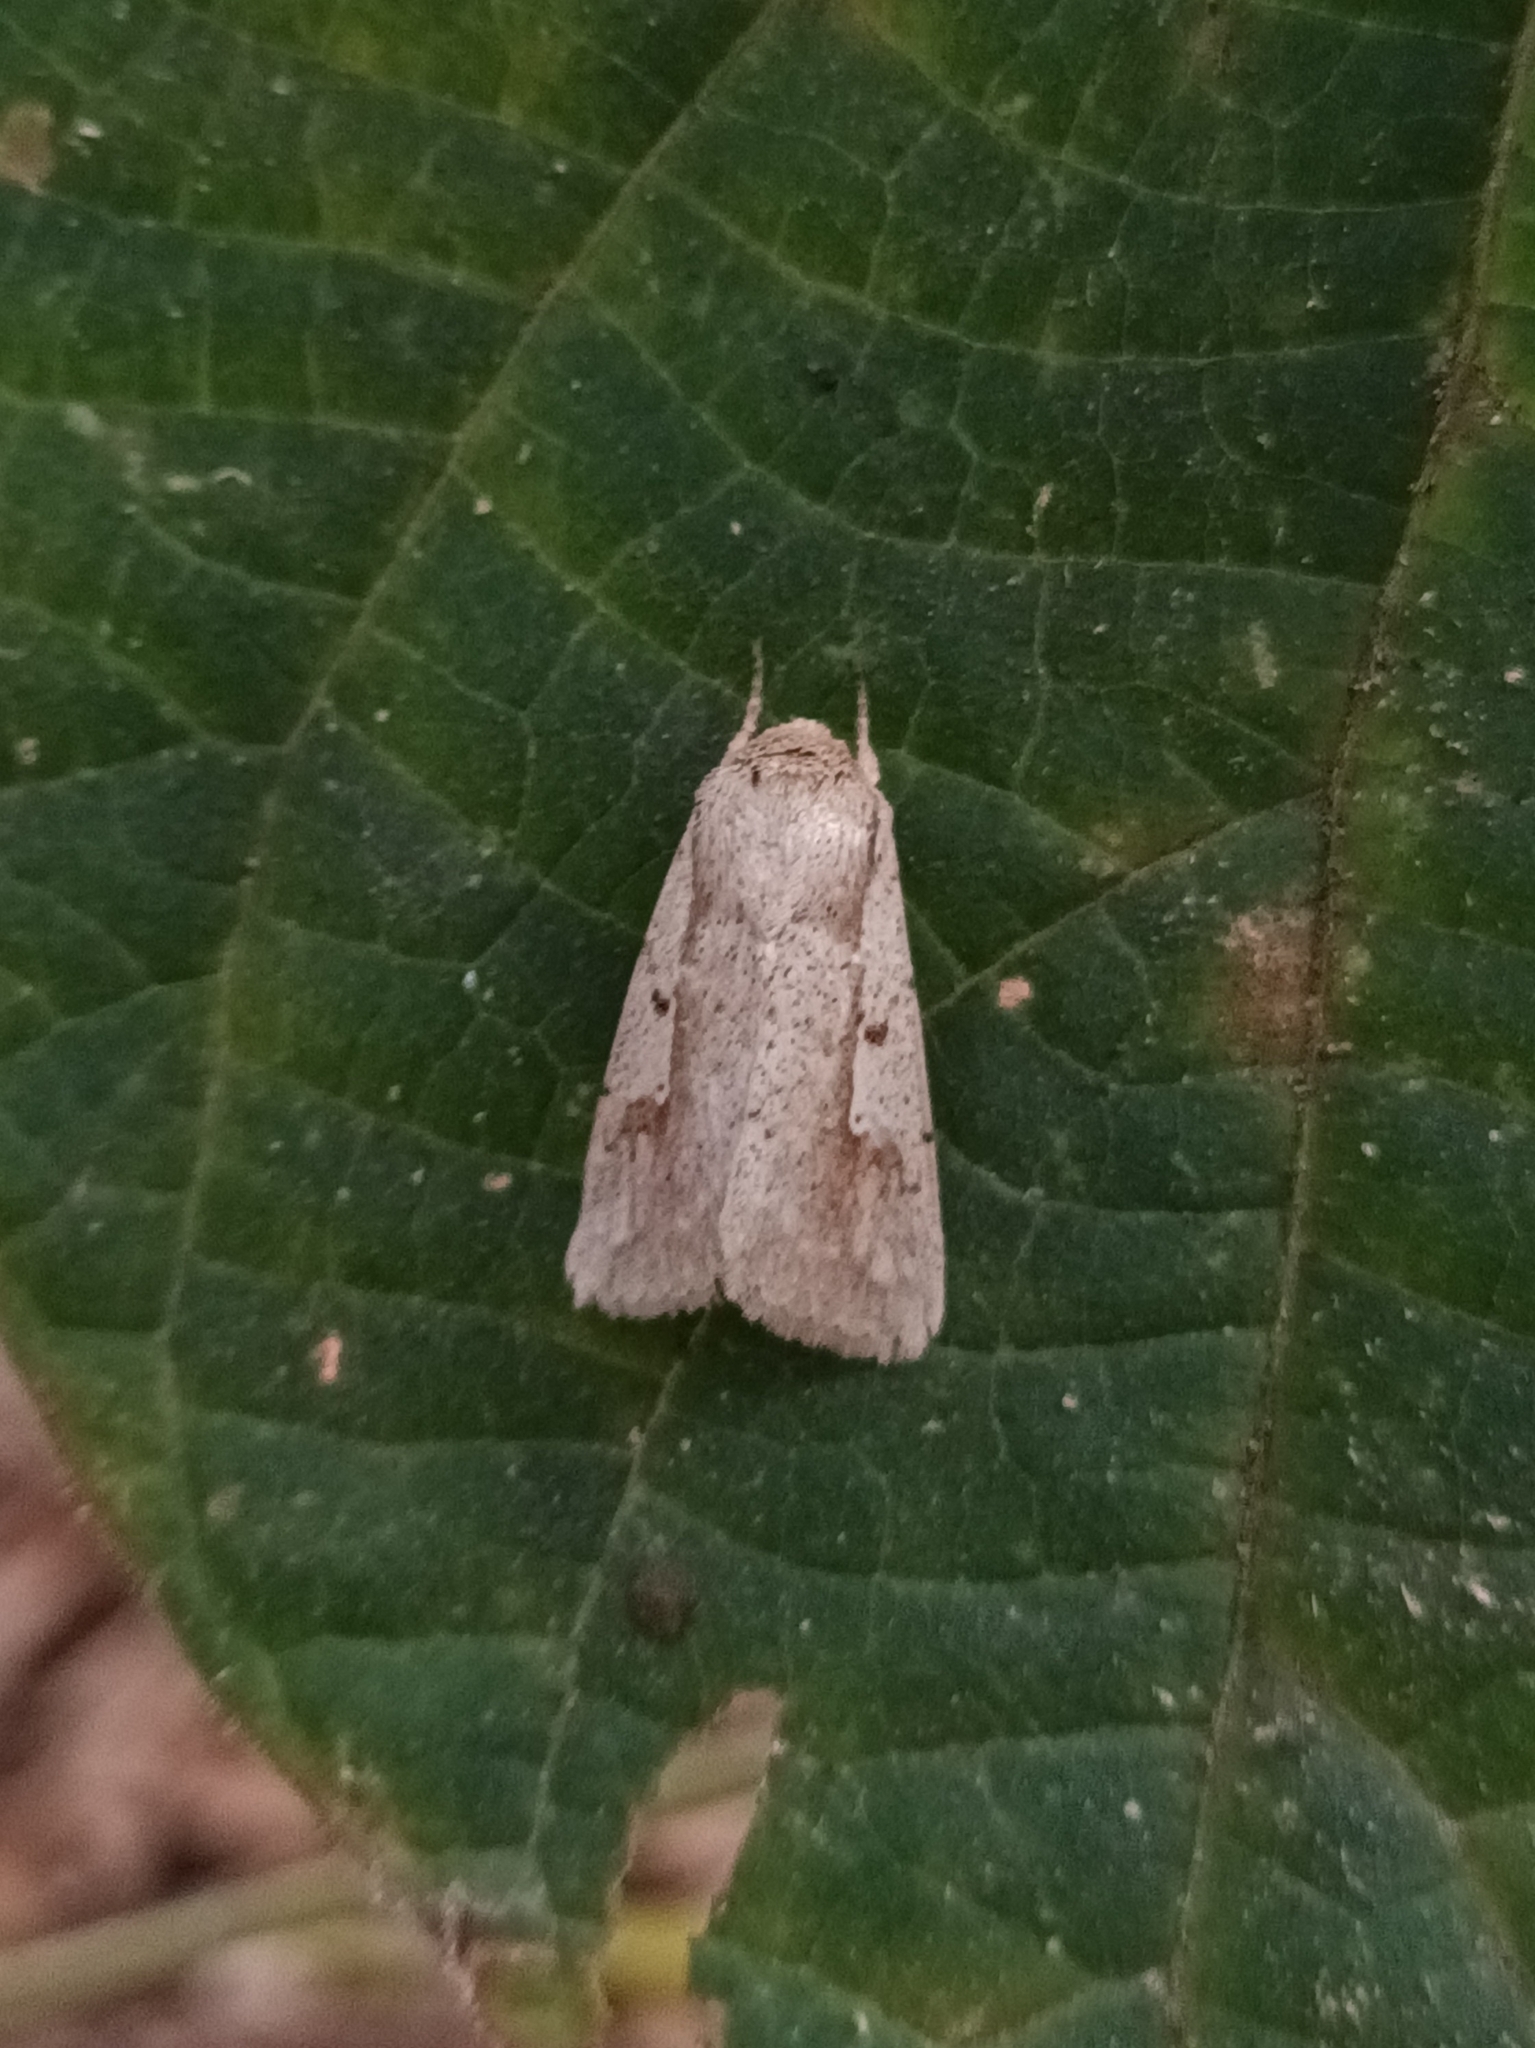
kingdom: Animalia
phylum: Arthropoda
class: Insecta
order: Lepidoptera
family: Noctuidae
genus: Leucania
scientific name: Leucania yu
